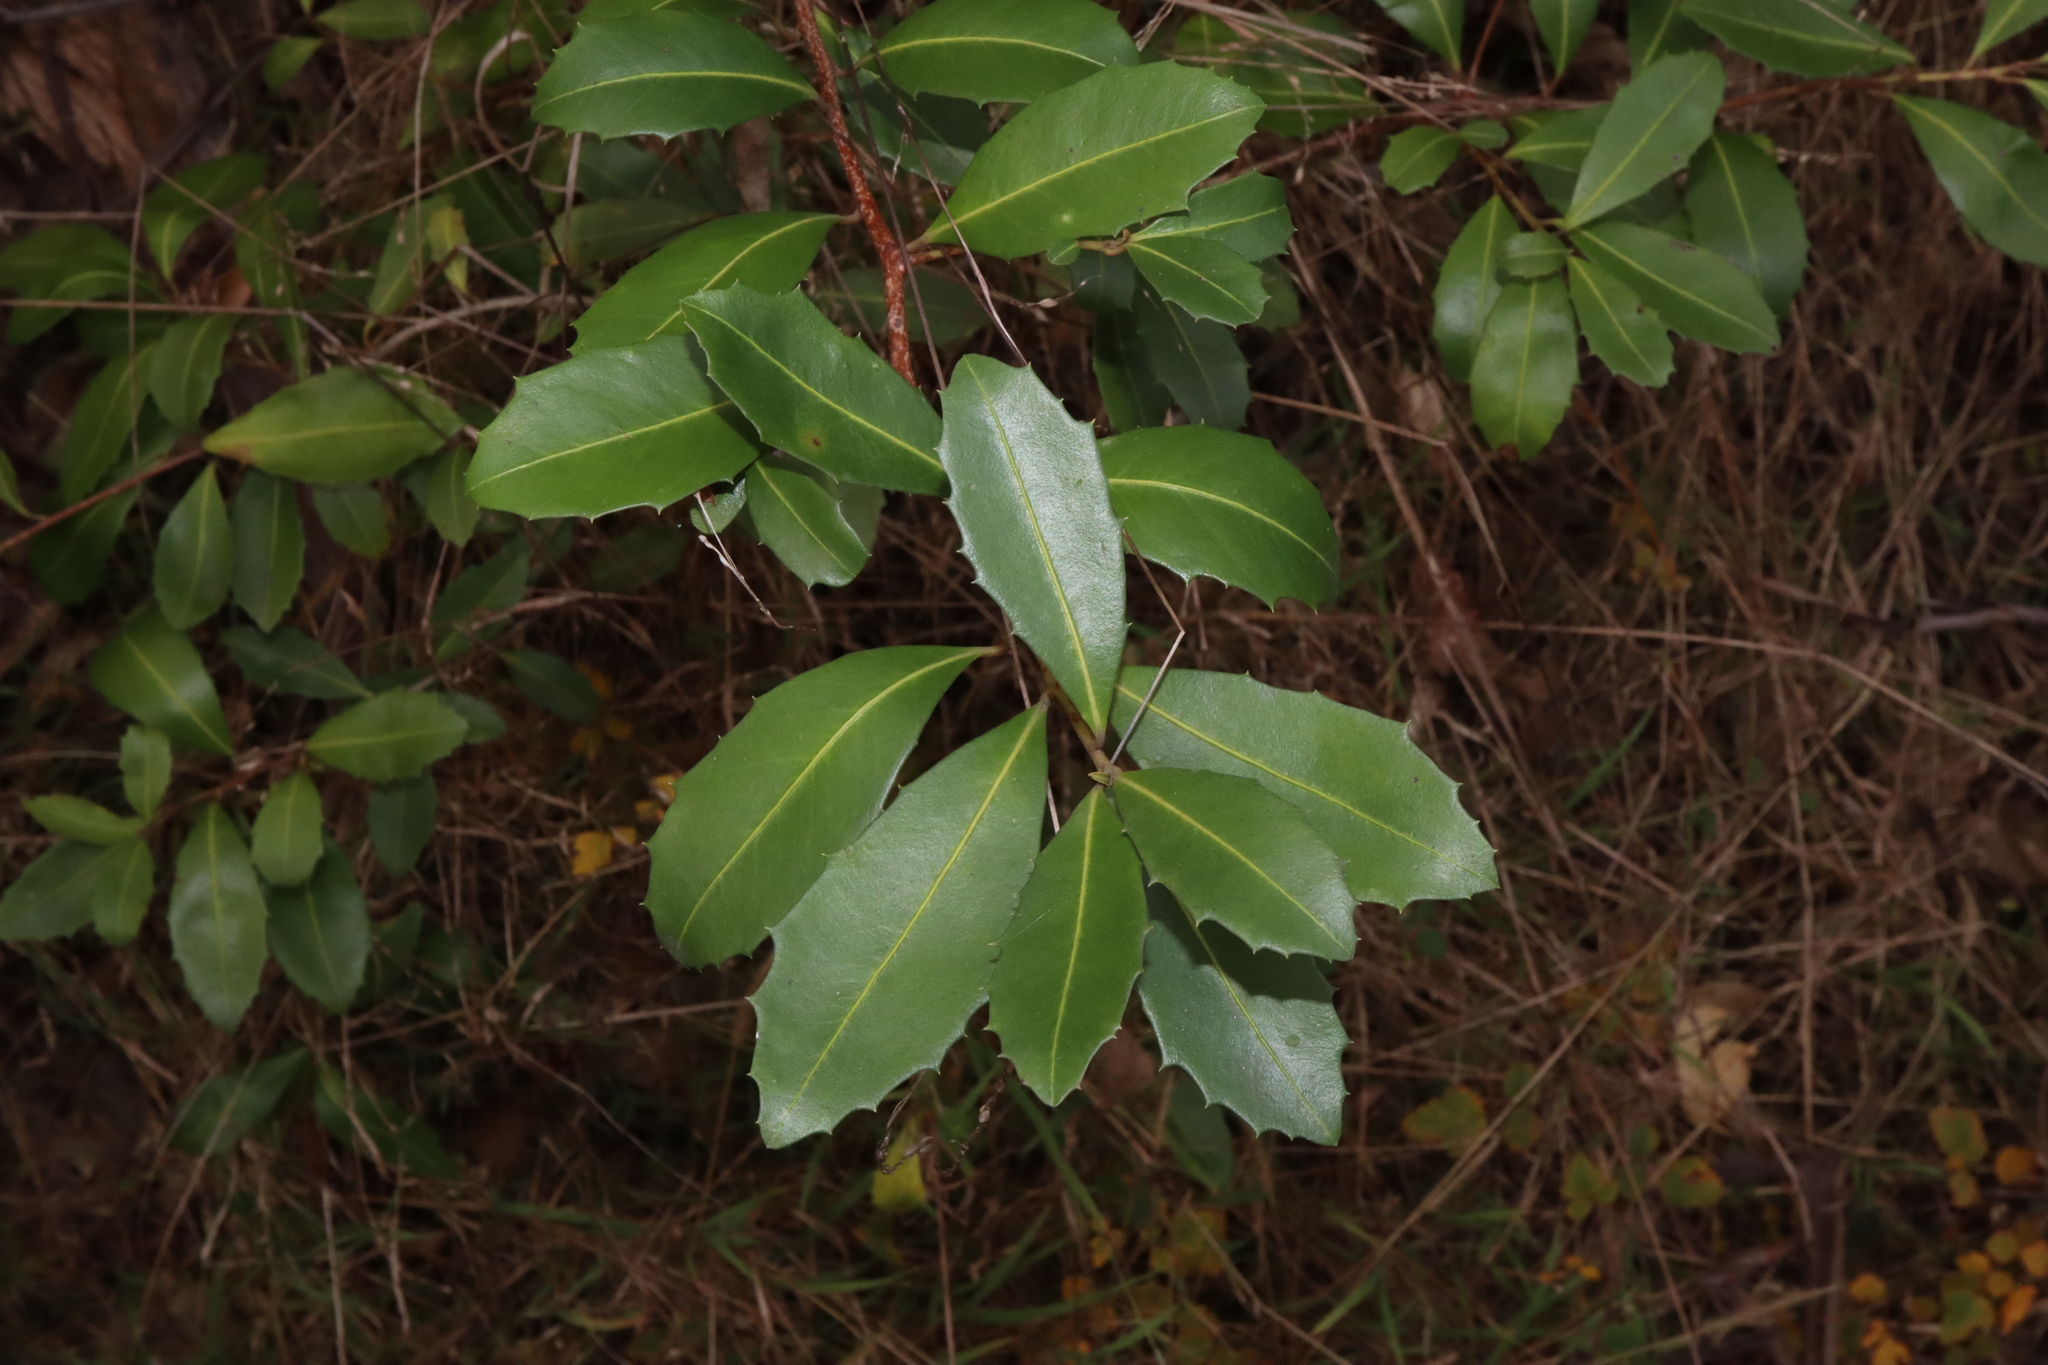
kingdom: Plantae
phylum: Tracheophyta
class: Magnoliopsida
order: Ericales
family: Primulaceae
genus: Myrsine
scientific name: Myrsine variabilis
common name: Brush muttonwood
